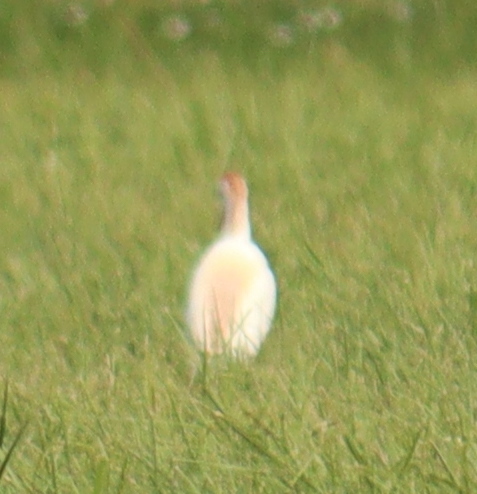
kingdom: Animalia
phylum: Chordata
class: Aves
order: Pelecaniformes
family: Ardeidae
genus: Bubulcus
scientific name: Bubulcus ibis
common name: Cattle egret
